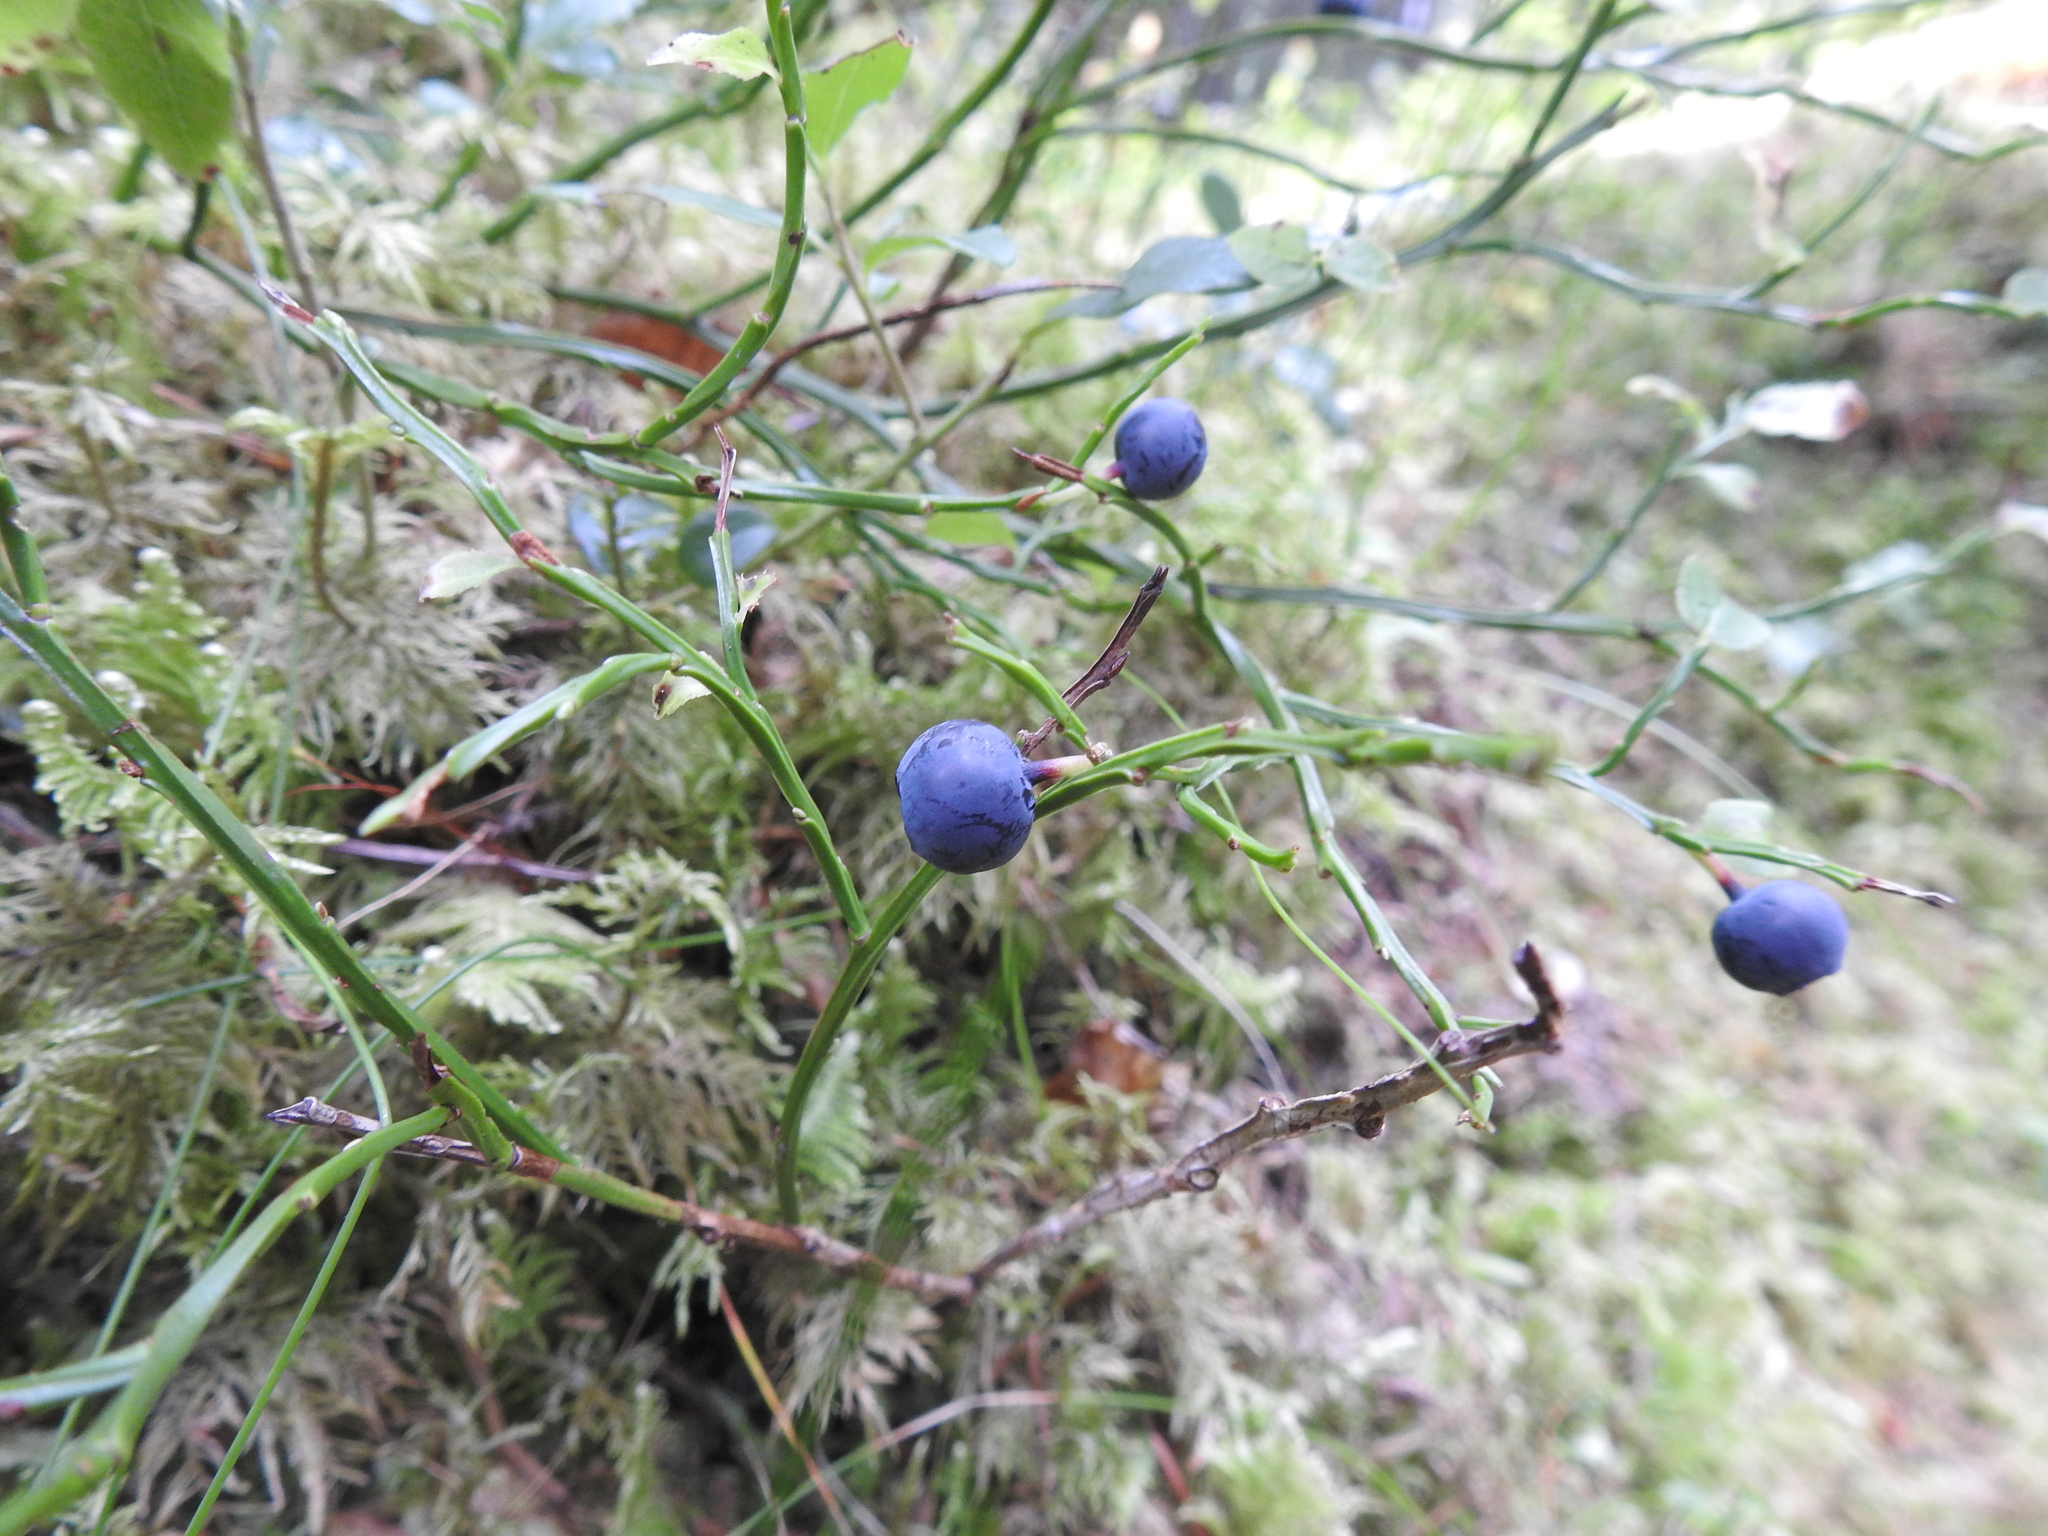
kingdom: Plantae
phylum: Tracheophyta
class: Magnoliopsida
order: Ericales
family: Ericaceae
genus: Vaccinium
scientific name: Vaccinium myrtillus
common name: Bilberry
